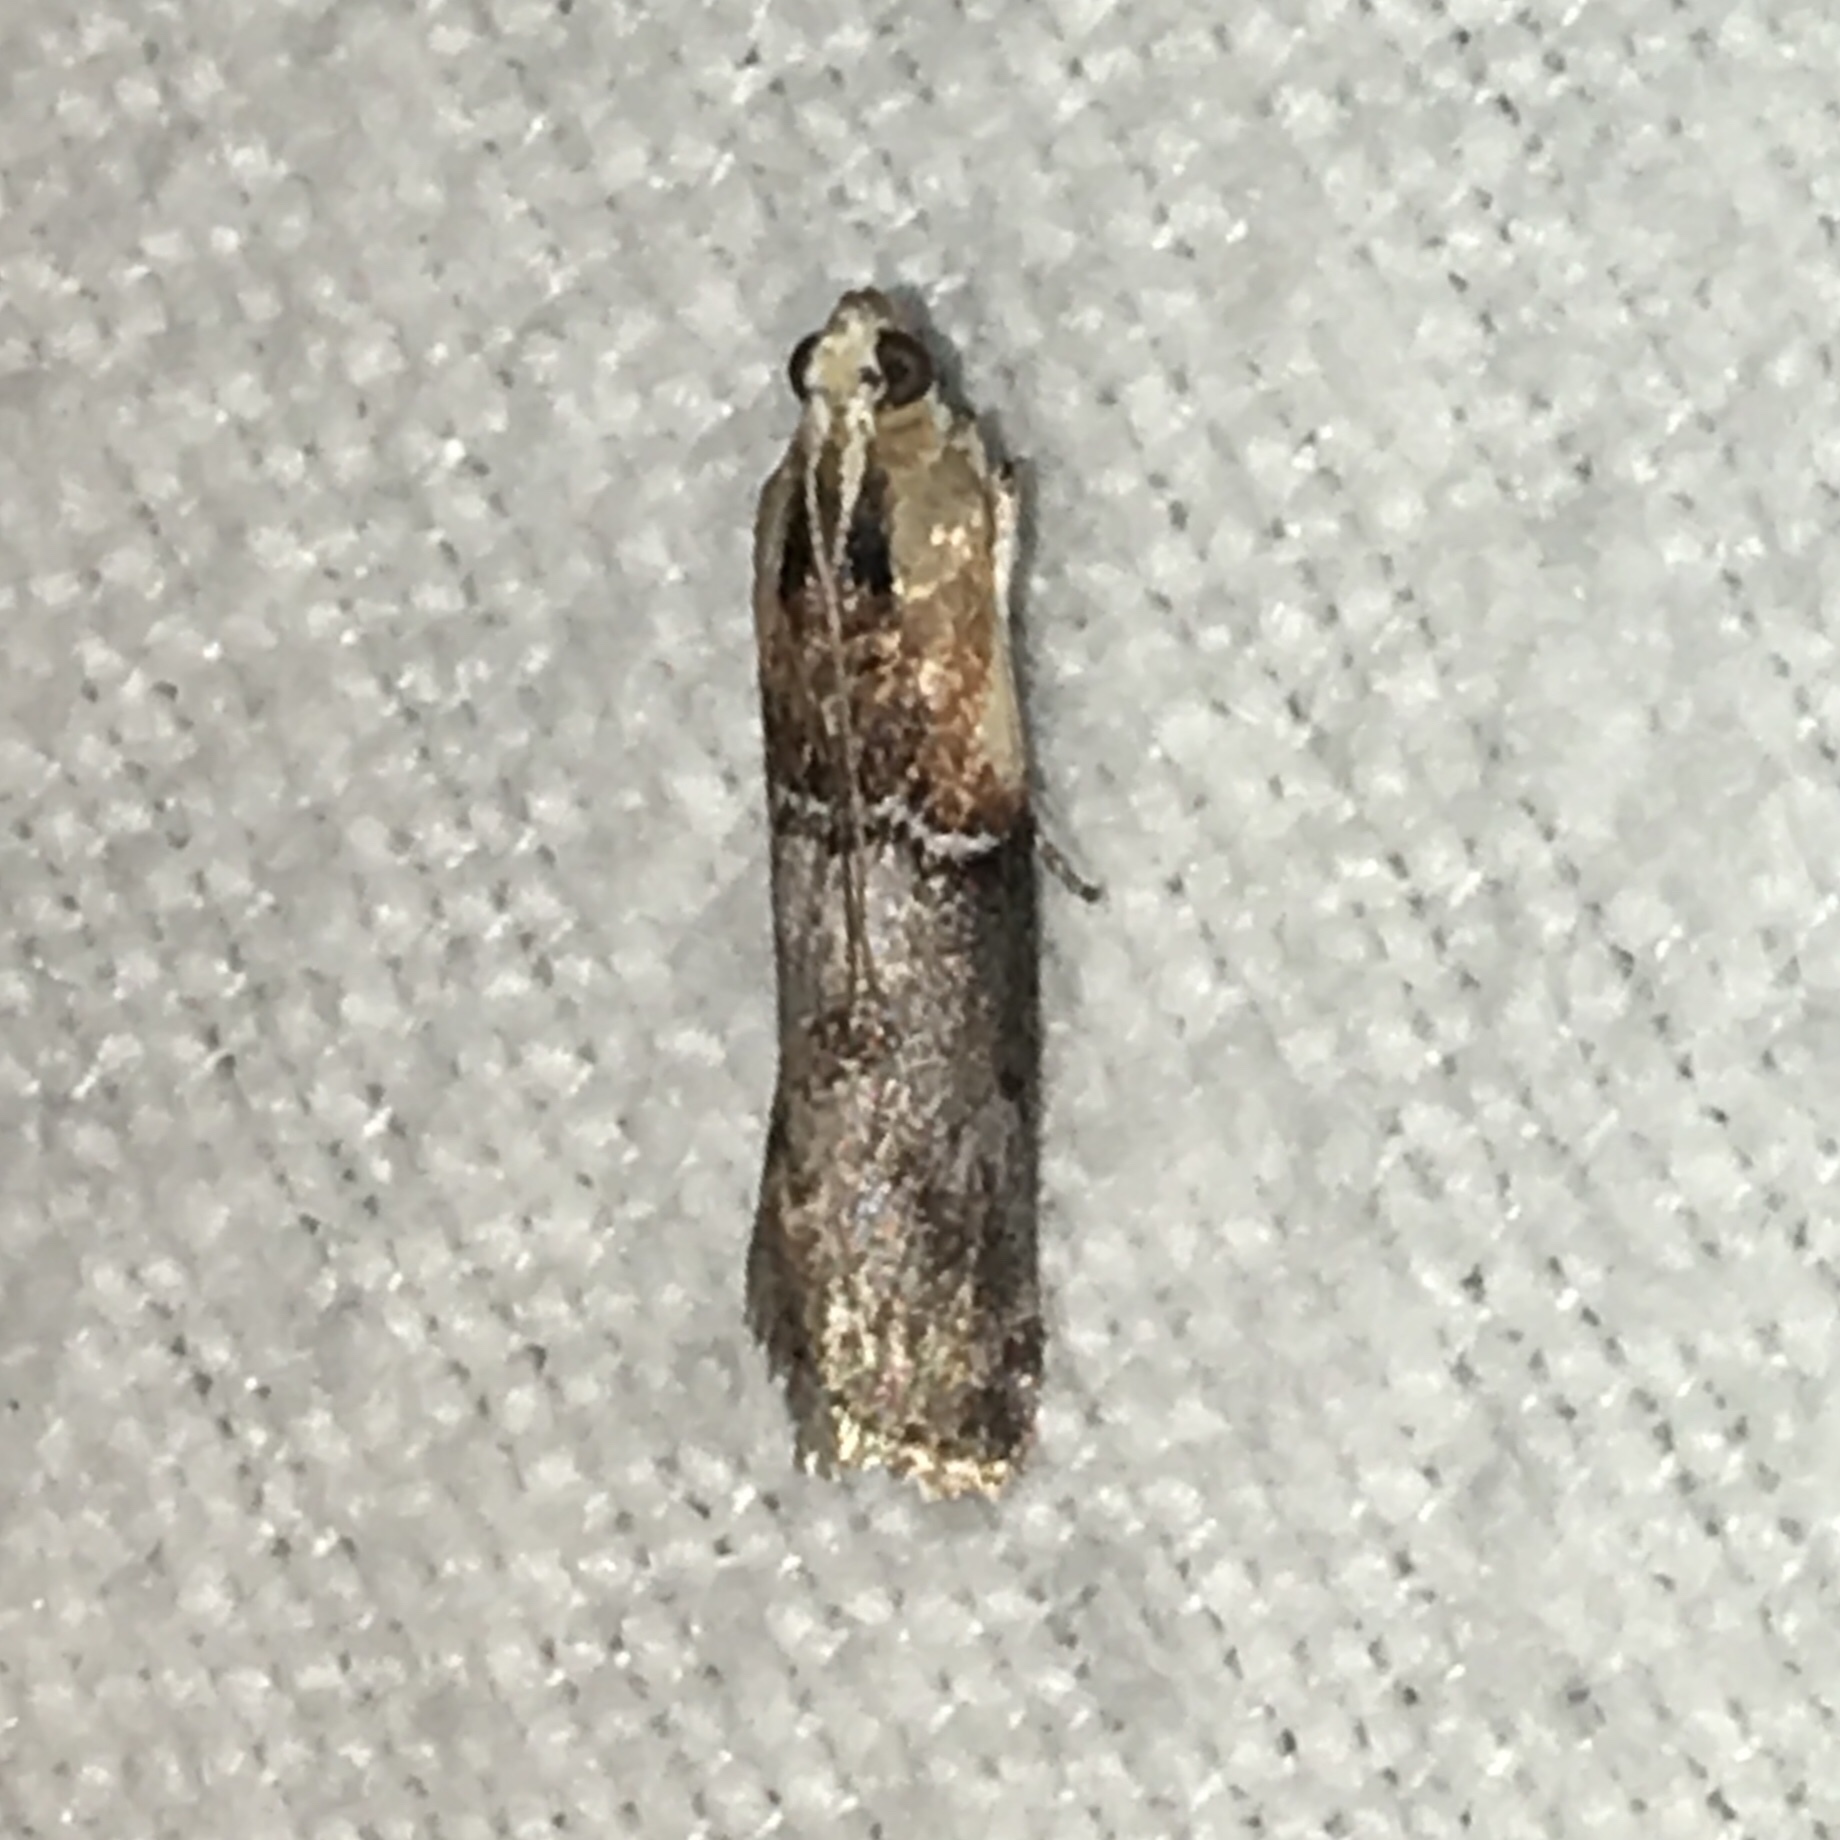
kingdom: Animalia
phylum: Arthropoda
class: Insecta
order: Lepidoptera
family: Pyralidae
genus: Sciota
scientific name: Sciota basilaris
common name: Yellow-shouldered leafroller
